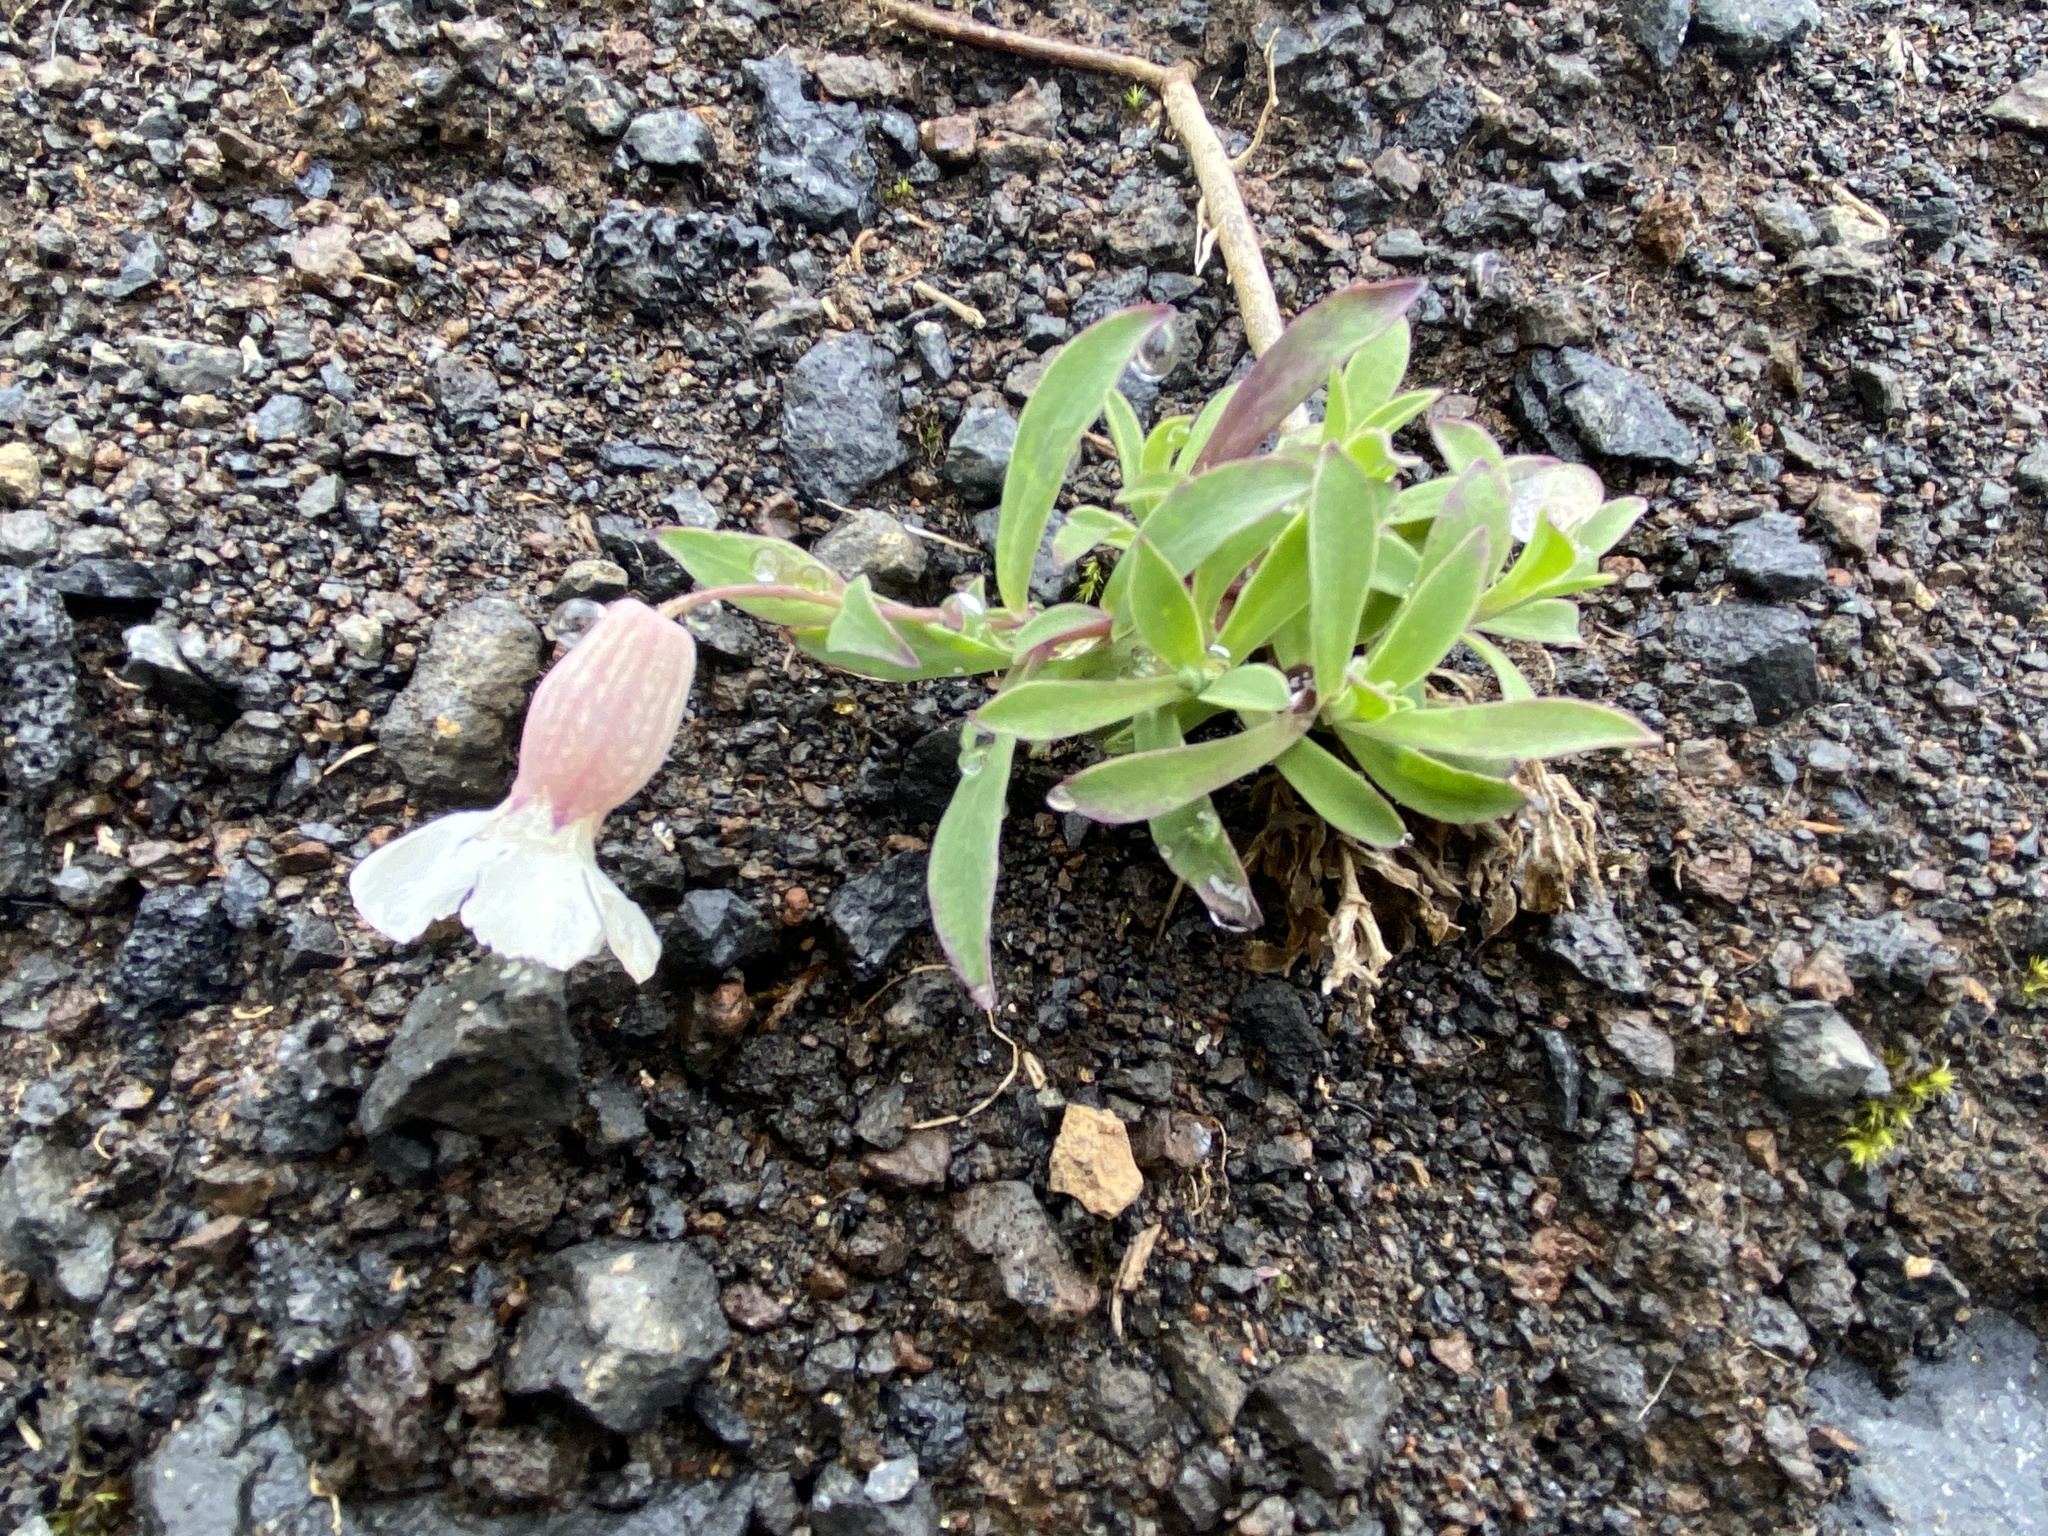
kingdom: Plantae
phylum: Tracheophyta
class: Magnoliopsida
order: Caryophyllales
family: Caryophyllaceae
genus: Silene
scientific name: Silene uniflora
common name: Sea campion
